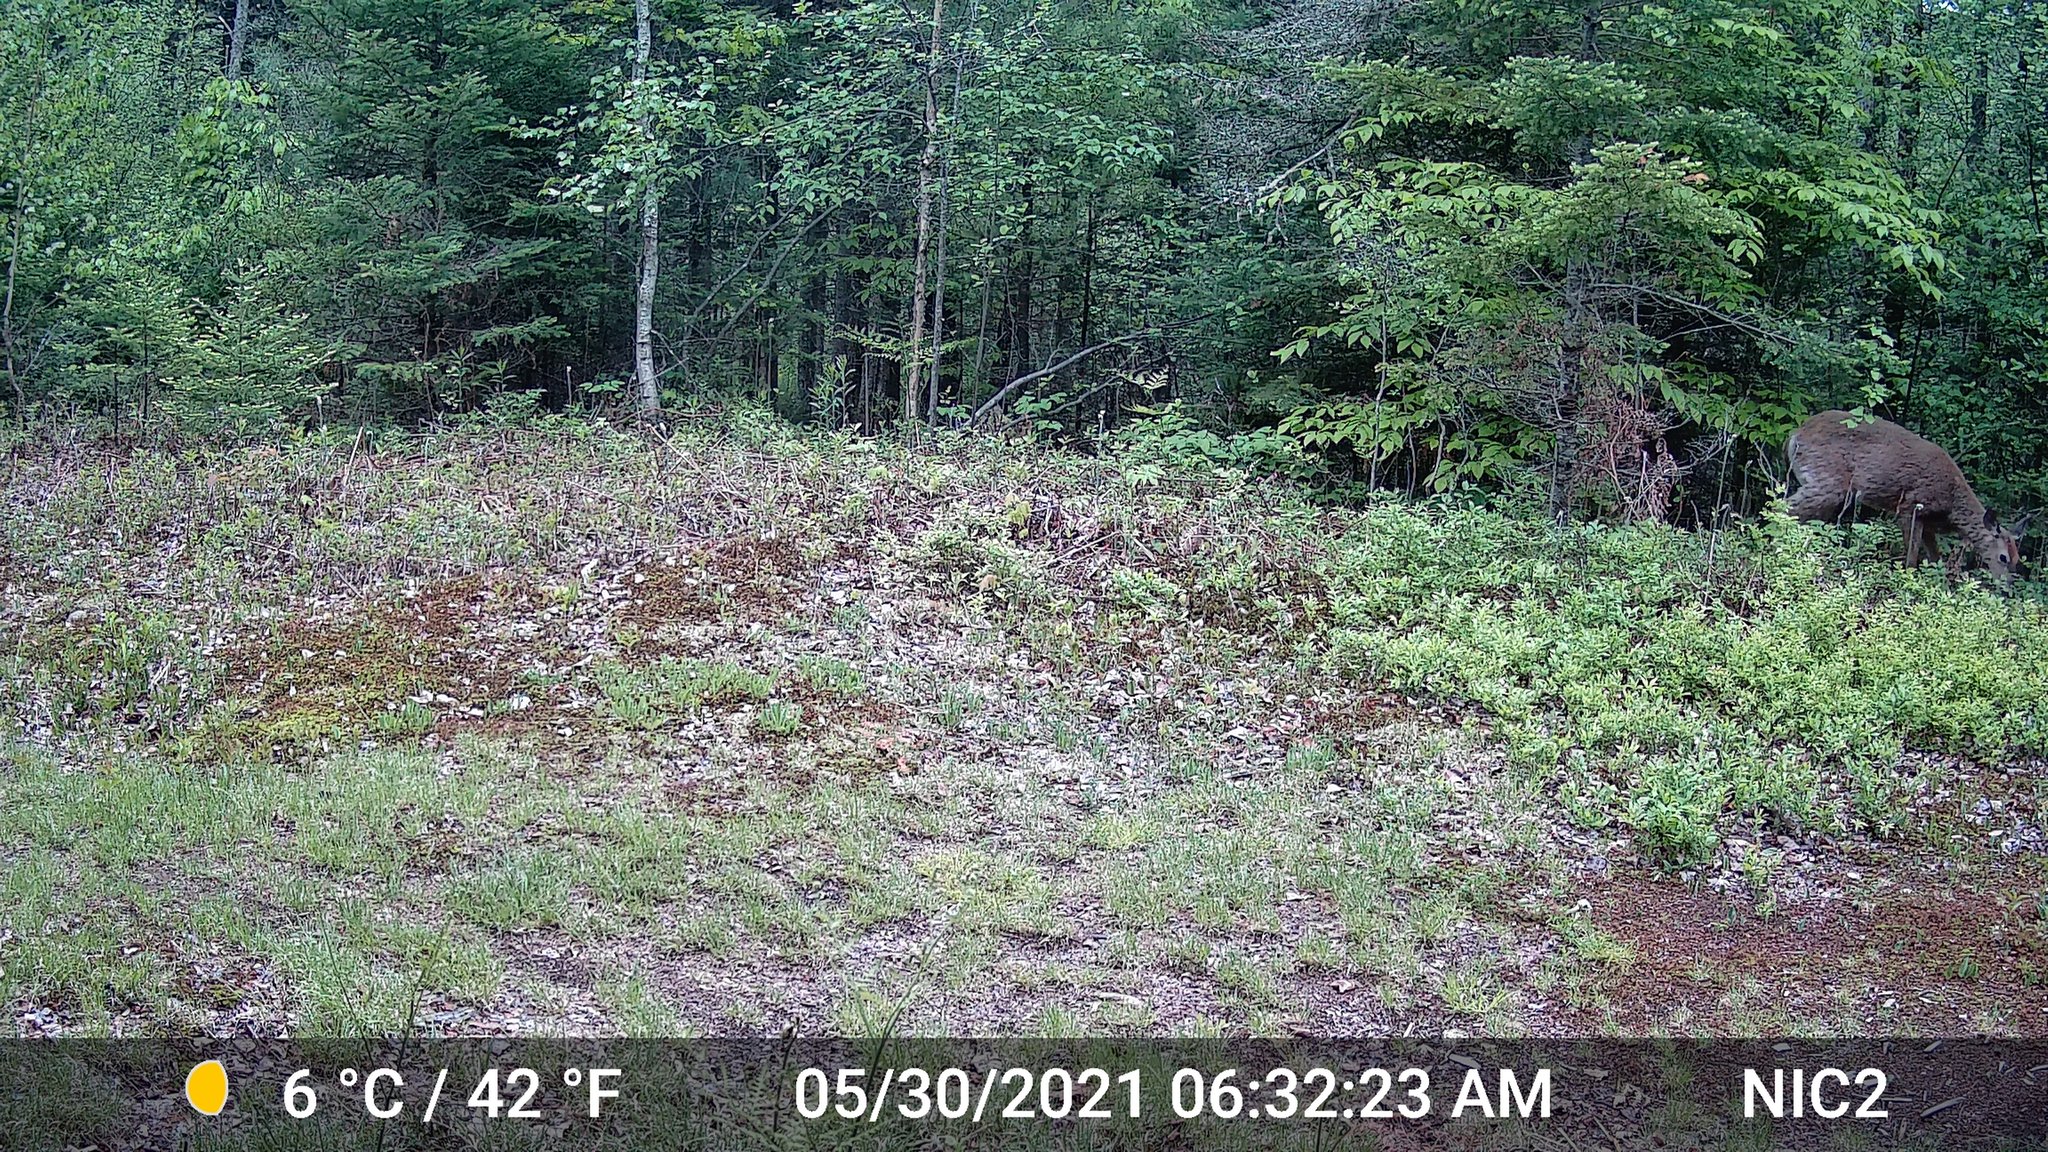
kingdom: Animalia
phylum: Chordata
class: Mammalia
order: Artiodactyla
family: Cervidae
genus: Odocoileus
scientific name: Odocoileus virginianus
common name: White-tailed deer
